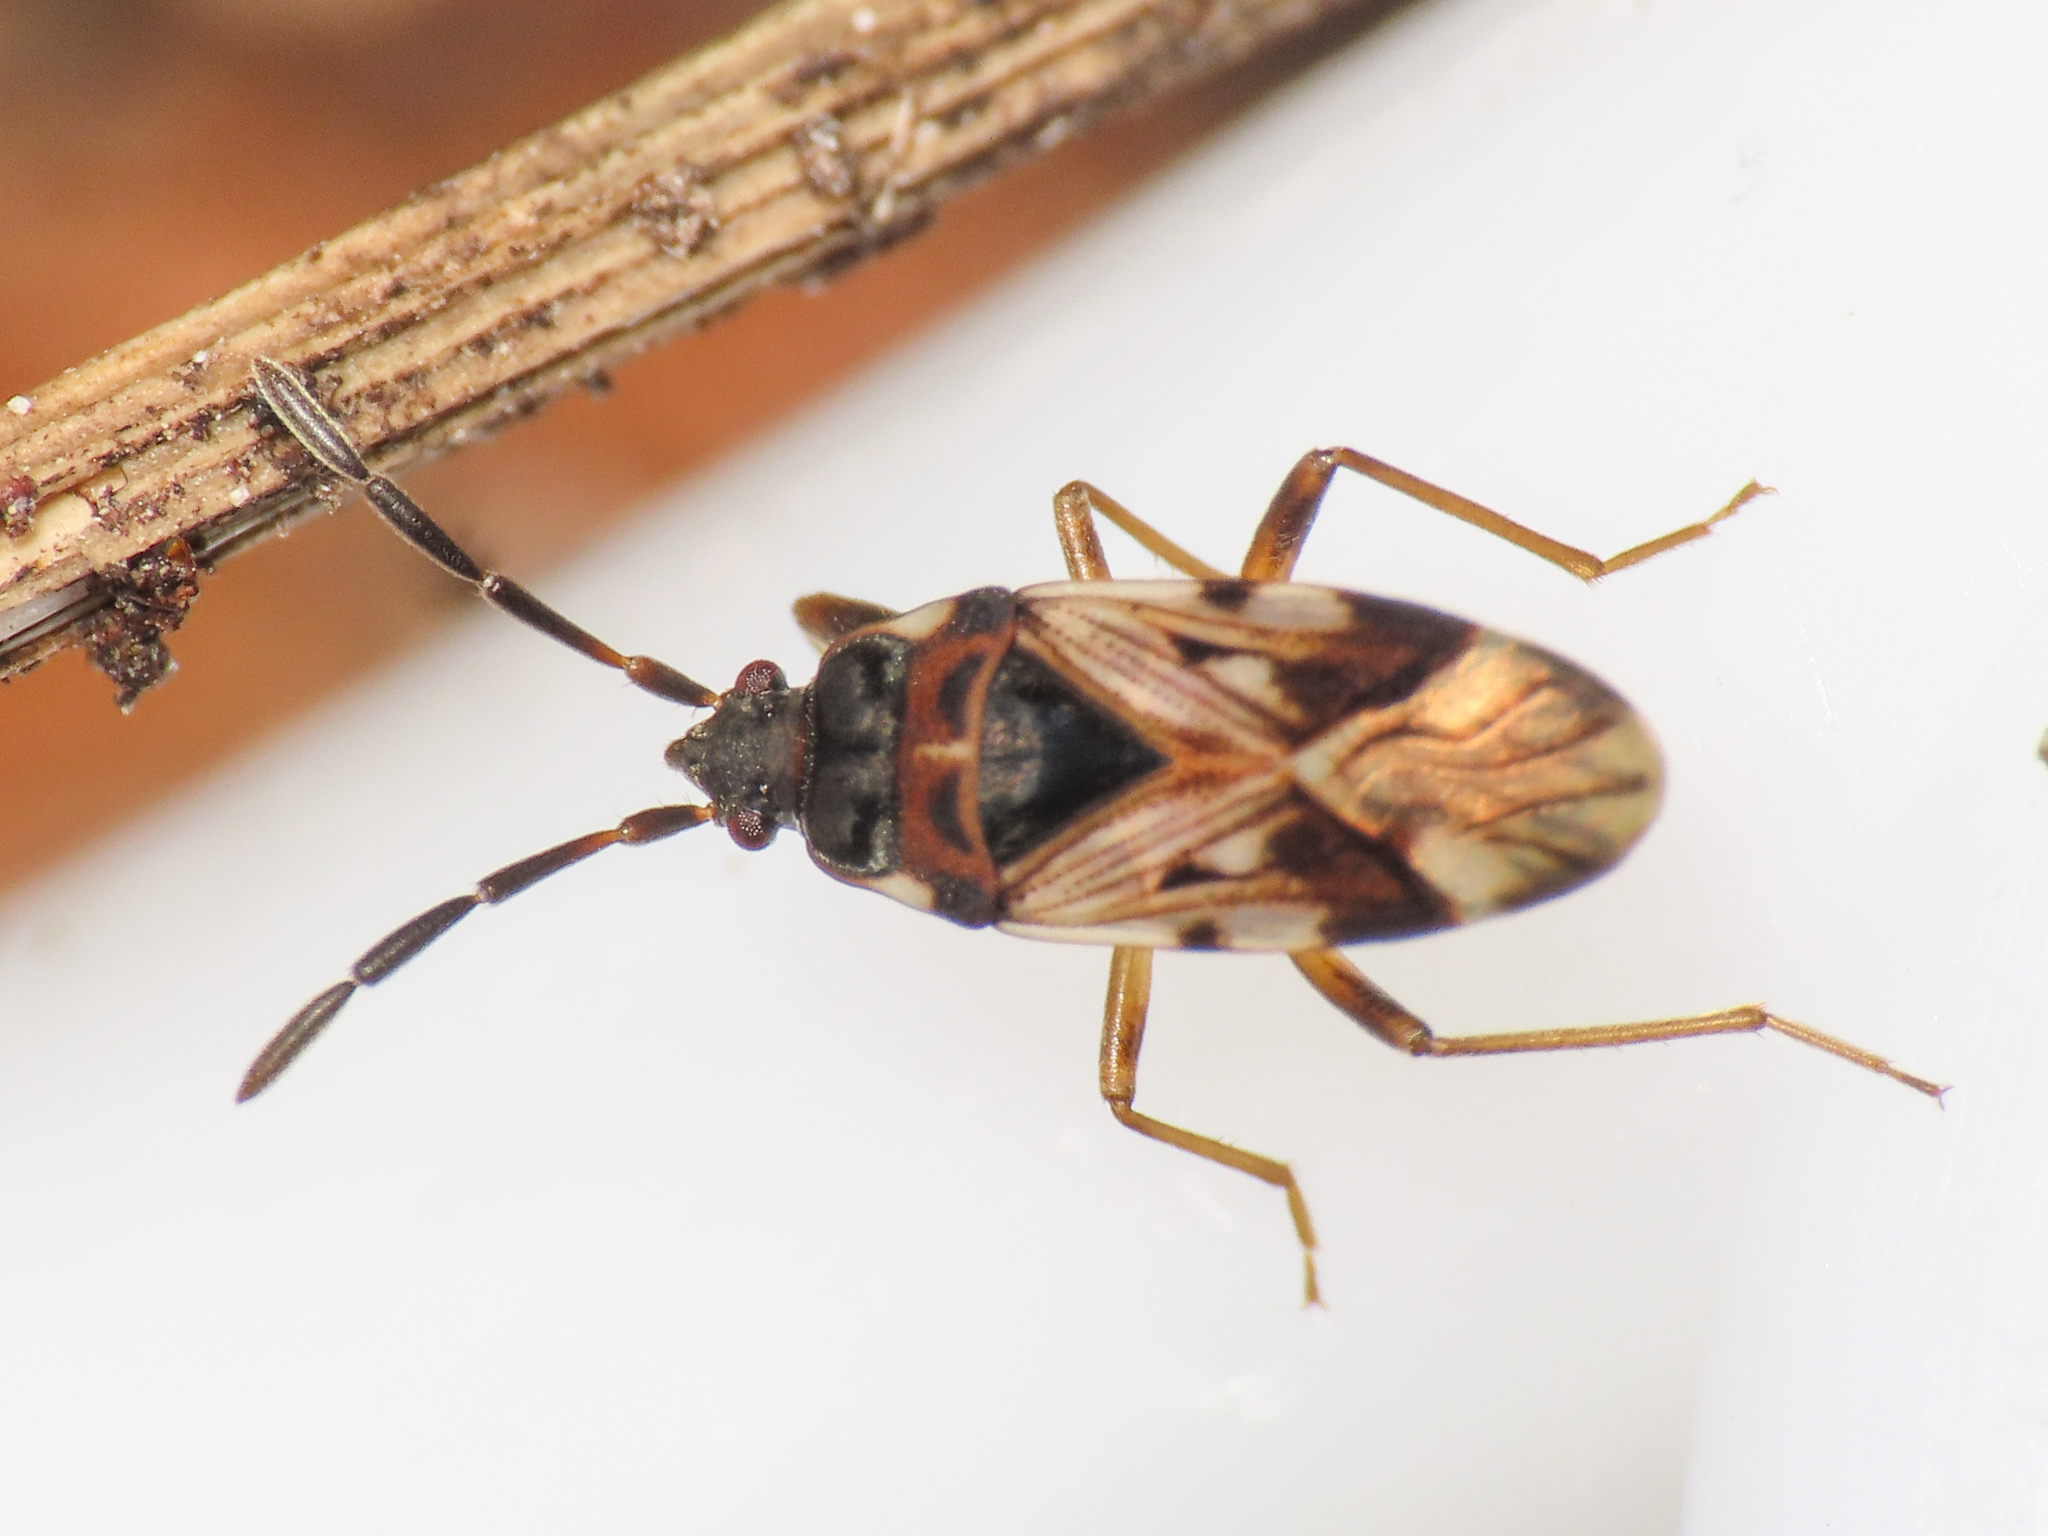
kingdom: Animalia
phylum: Arthropoda
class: Insecta
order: Hemiptera
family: Rhyparochromidae
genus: Scolopostethus
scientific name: Scolopostethus decoratus
